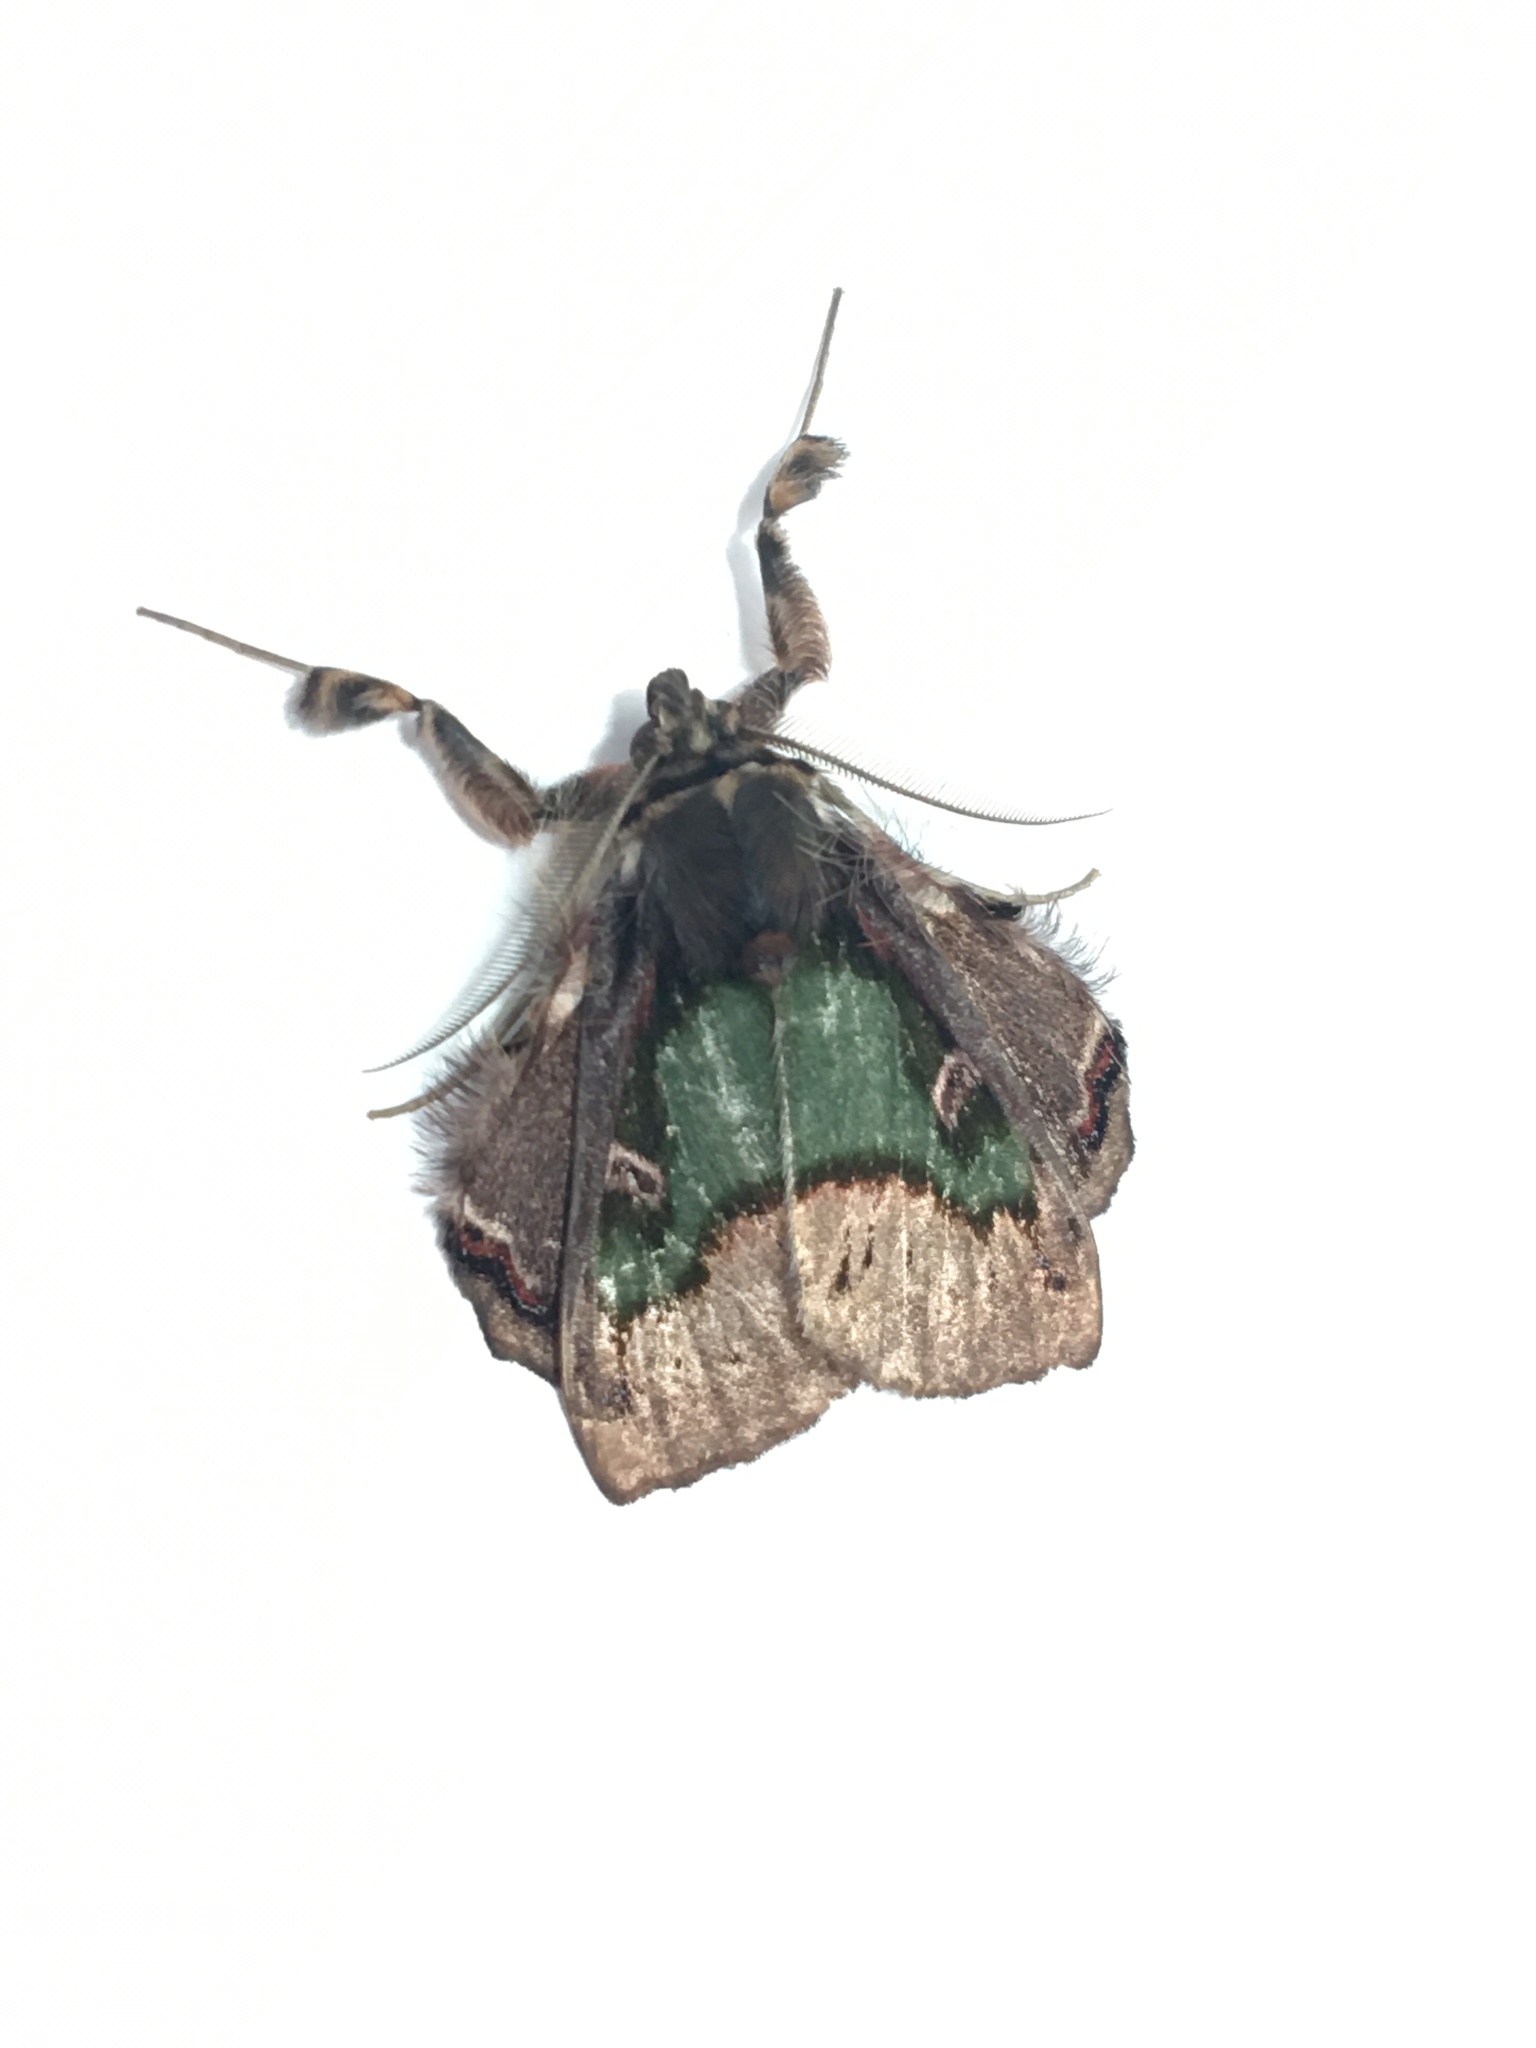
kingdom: Animalia
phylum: Arthropoda
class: Insecta
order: Lepidoptera
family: Erebidae
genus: Ceroctena
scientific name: Ceroctena amynta
